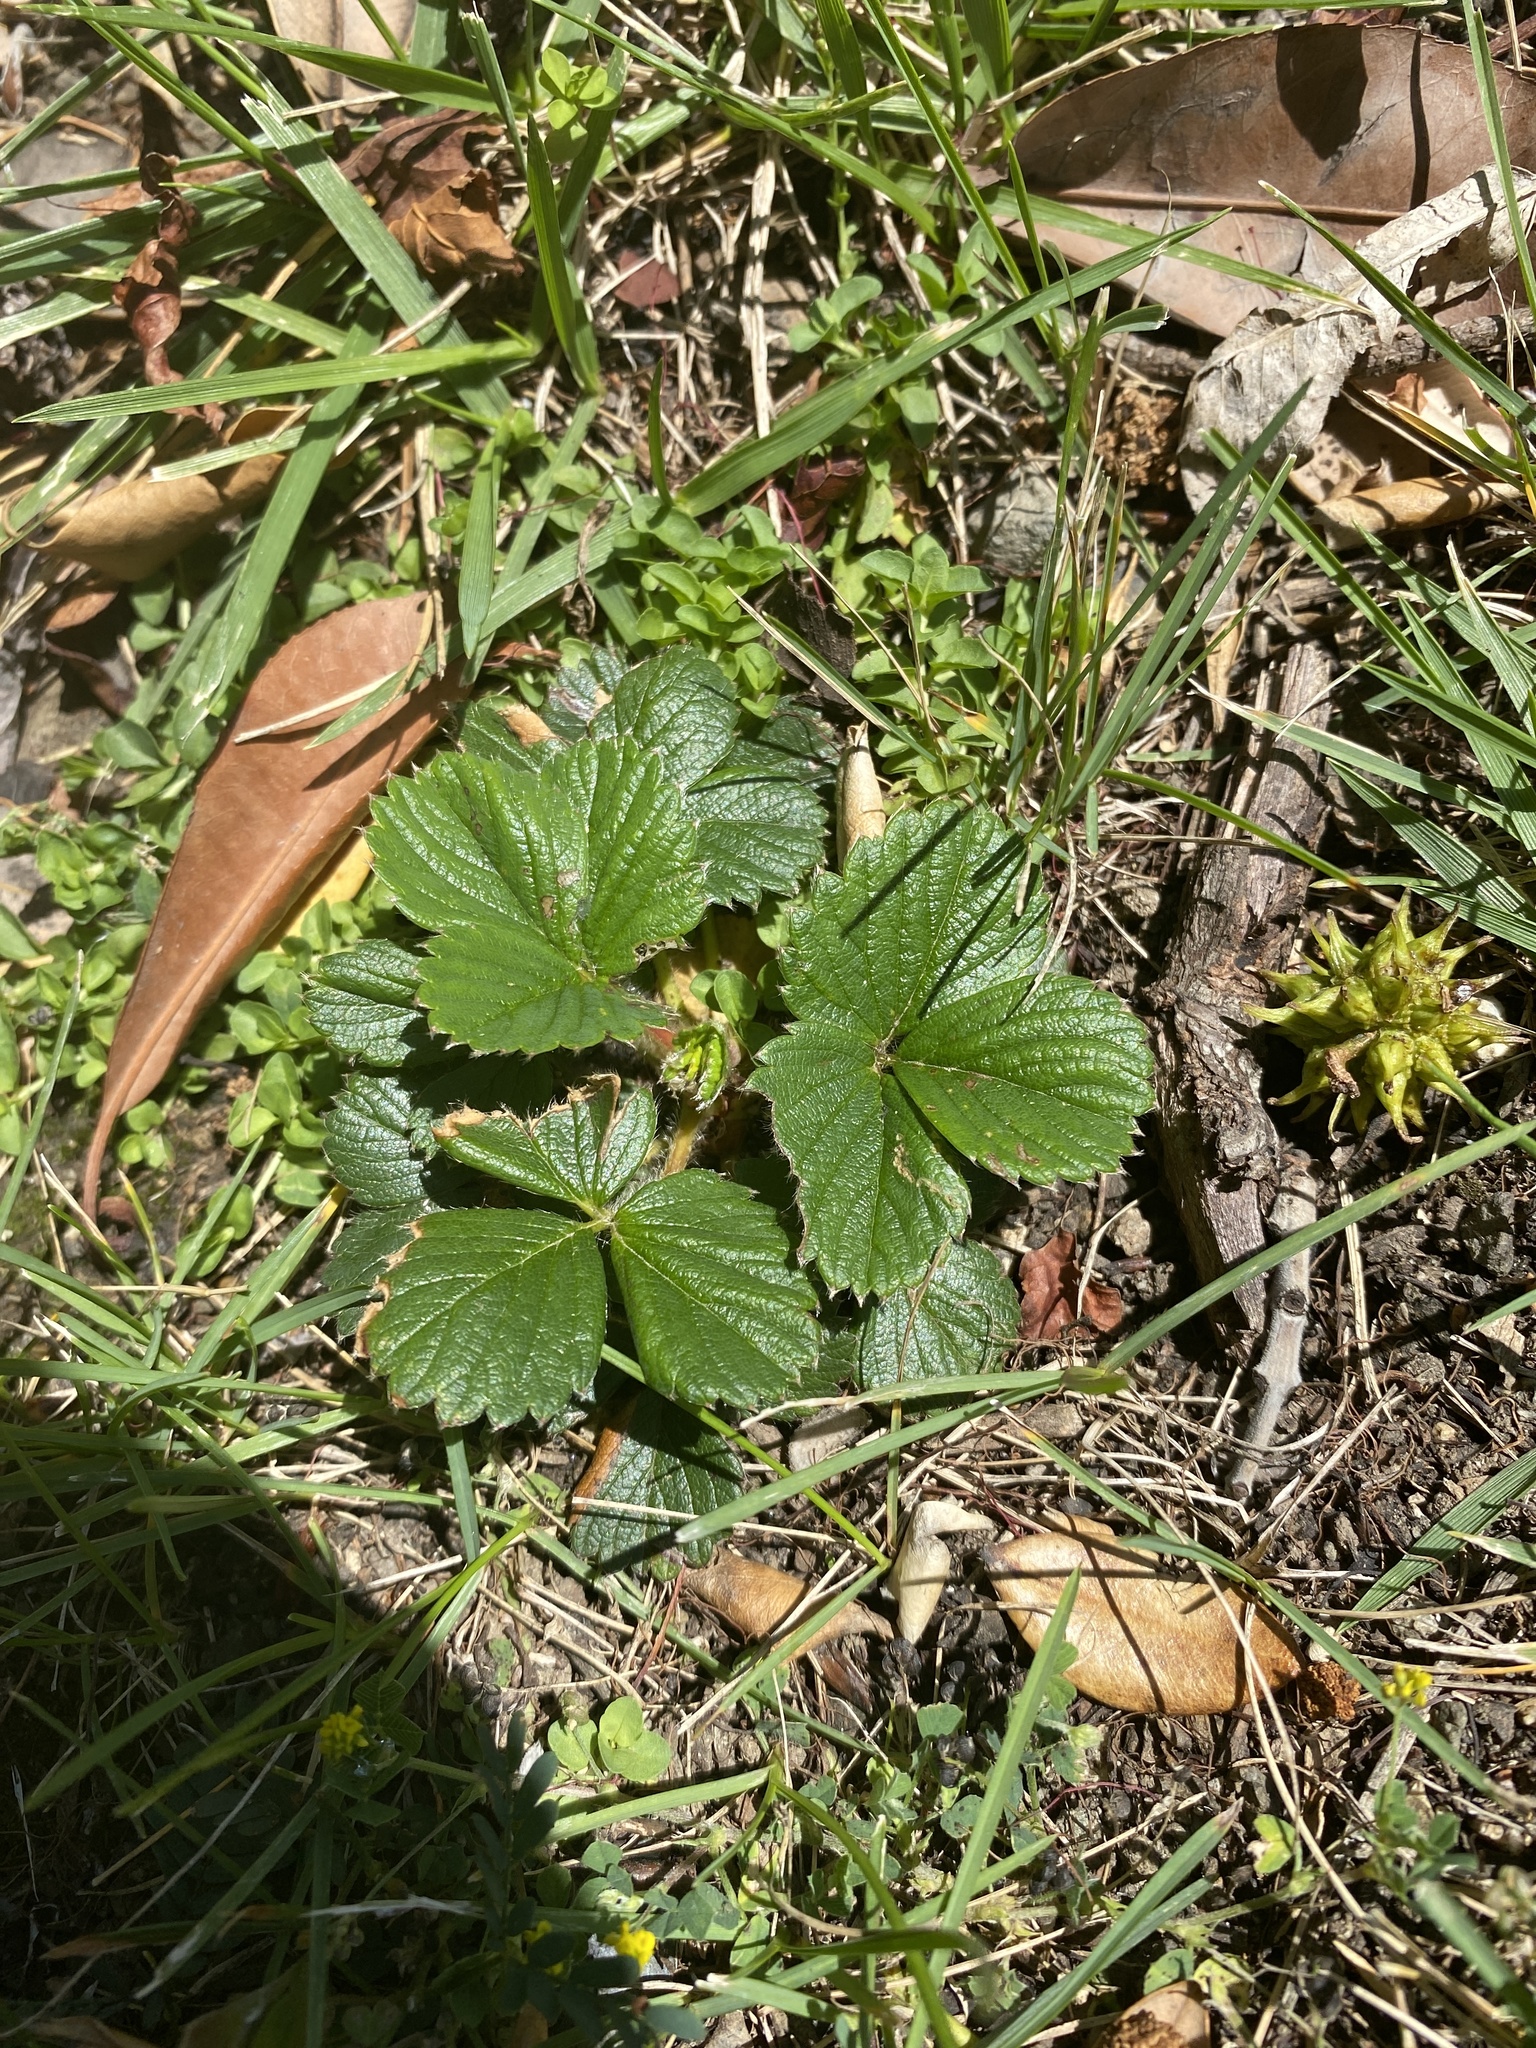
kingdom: Plantae
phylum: Tracheophyta
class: Magnoliopsida
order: Rosales
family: Rosaceae
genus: Fragaria
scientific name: Fragaria chiloensis
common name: Beach strawberry
